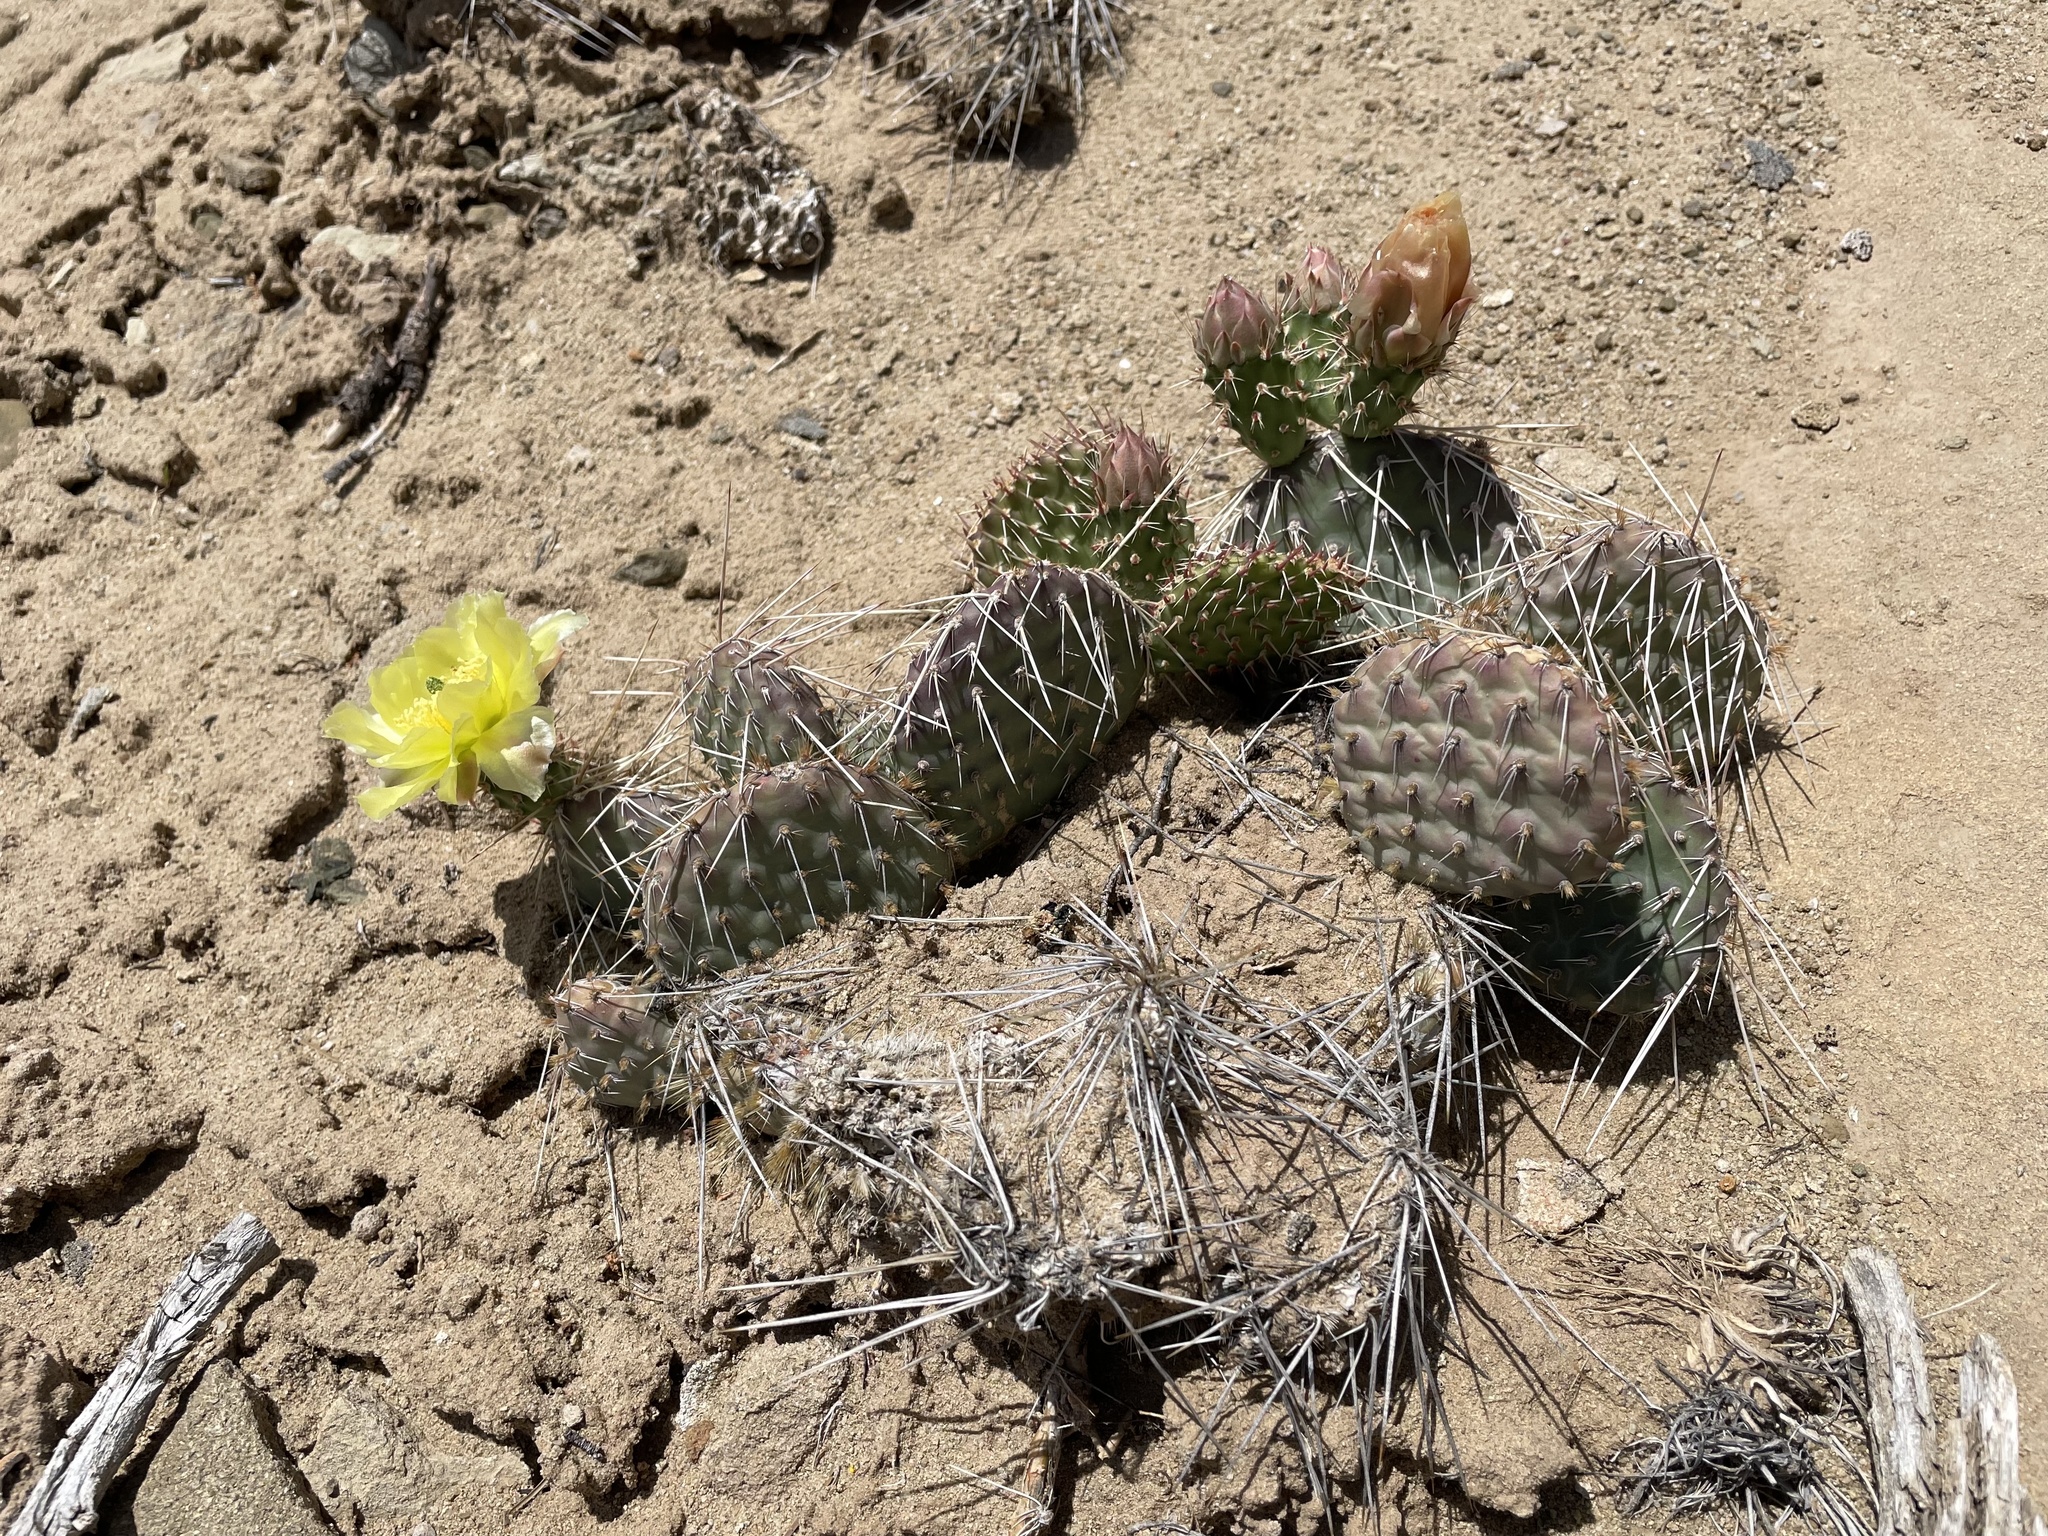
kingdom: Plantae
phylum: Tracheophyta
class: Magnoliopsida
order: Caryophyllales
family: Cactaceae
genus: Opuntia
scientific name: Opuntia polyacantha
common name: Plains prickly-pear
